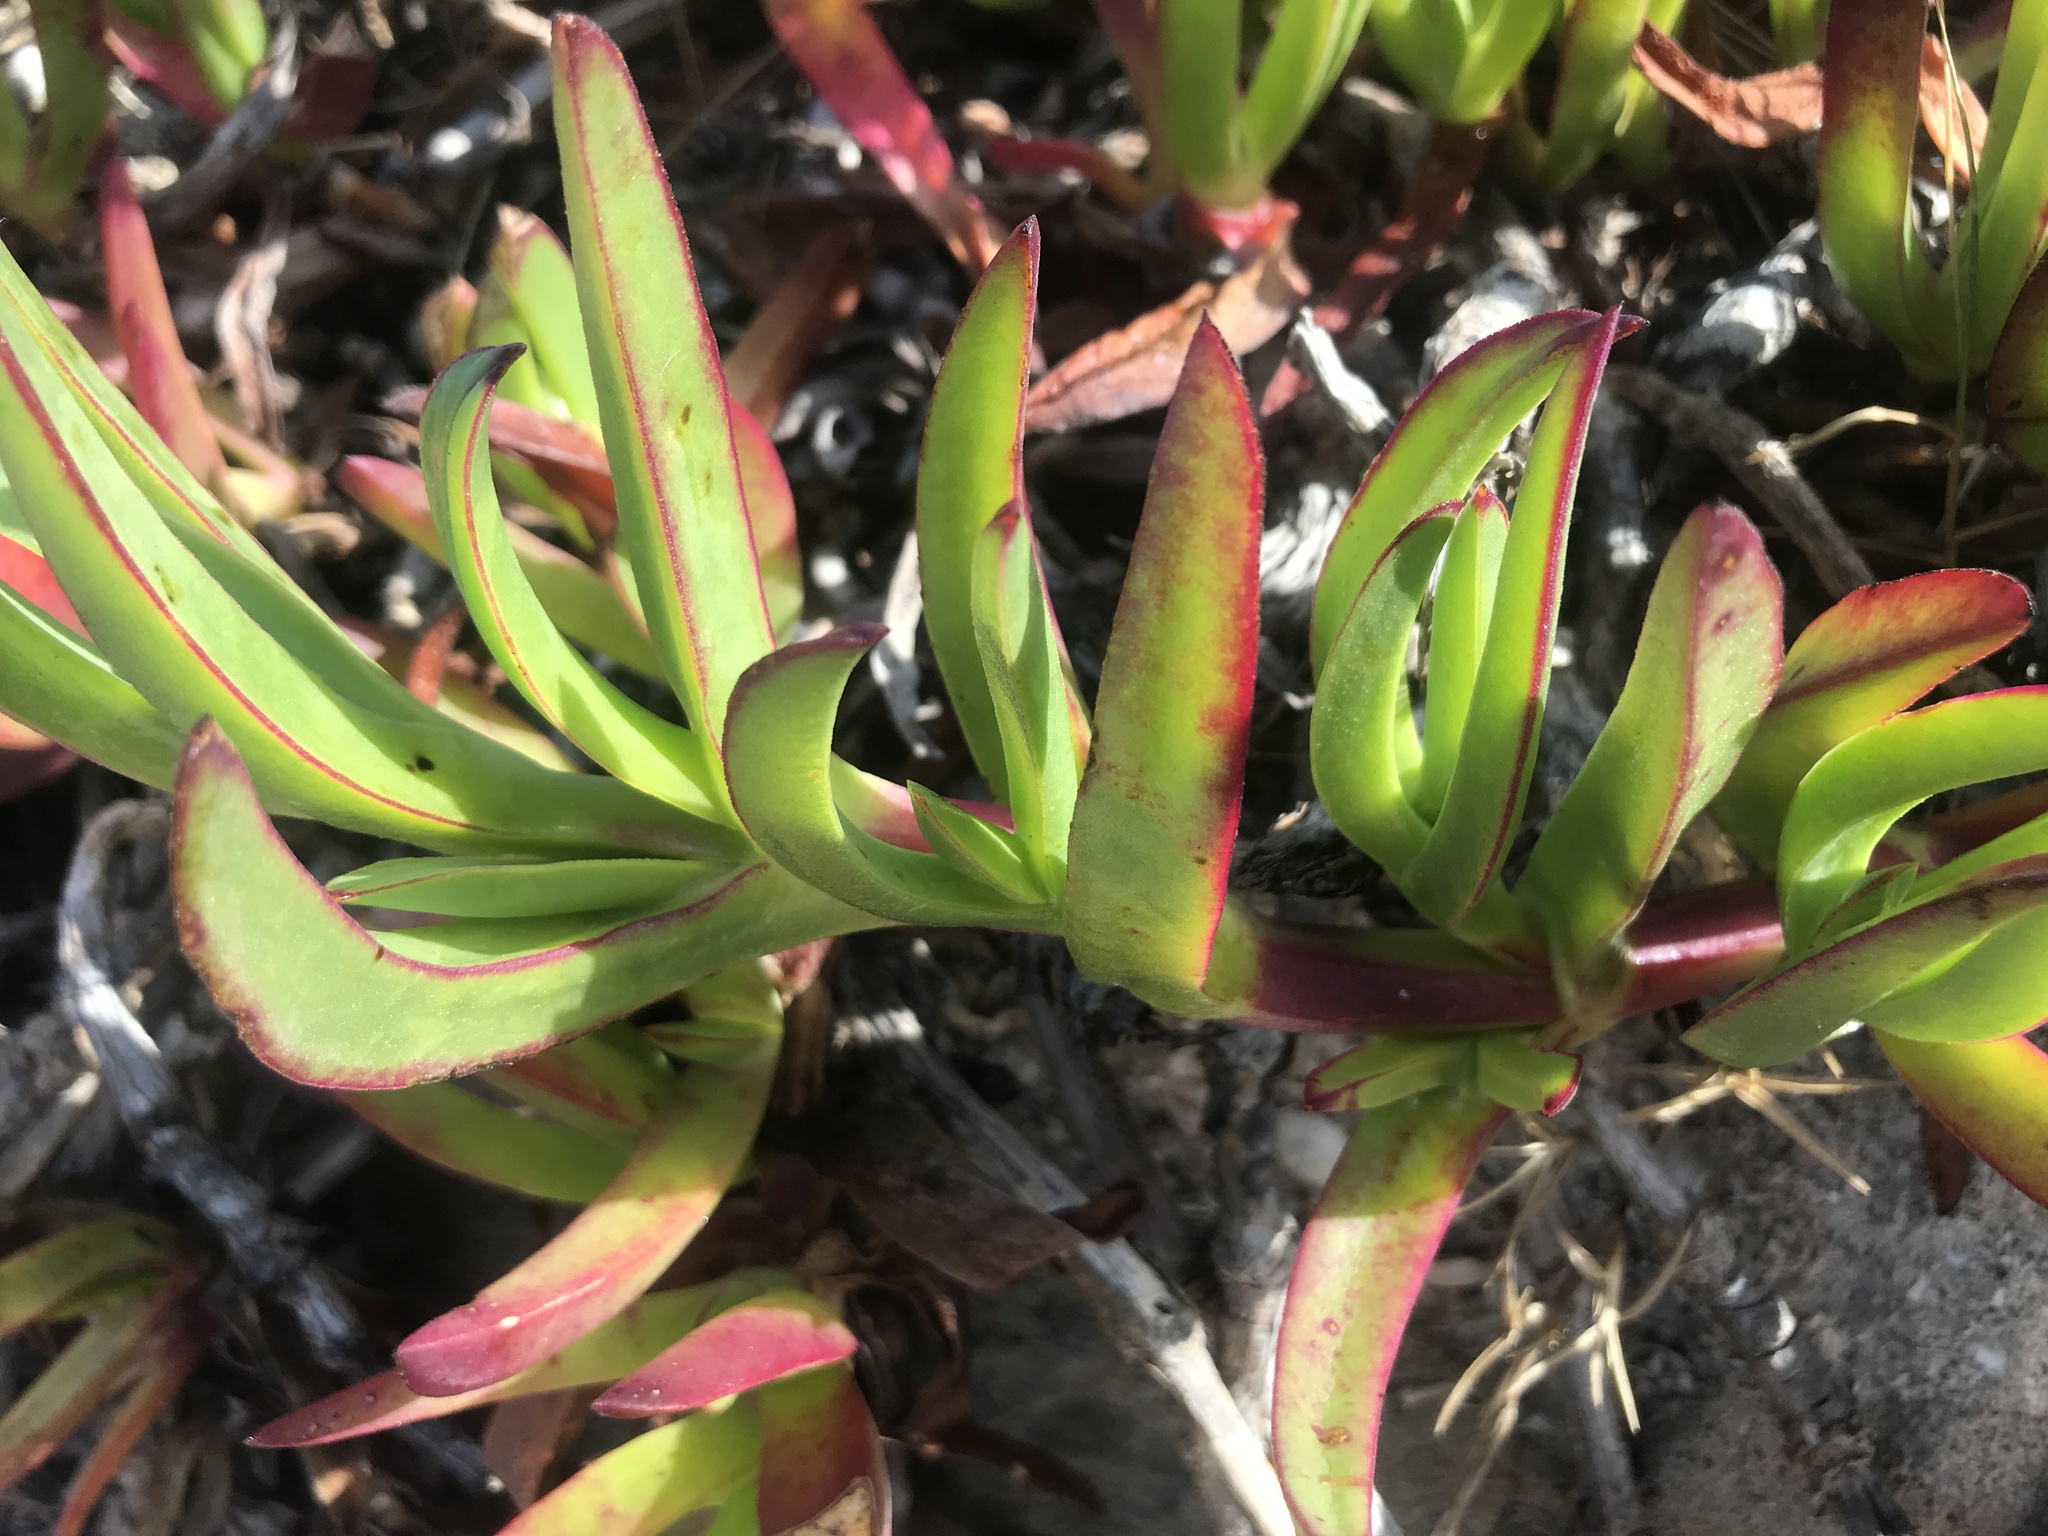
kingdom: Plantae
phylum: Tracheophyta
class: Magnoliopsida
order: Caryophyllales
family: Aizoaceae
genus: Carpobrotus
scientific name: Carpobrotus edulis
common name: Hottentot-fig
